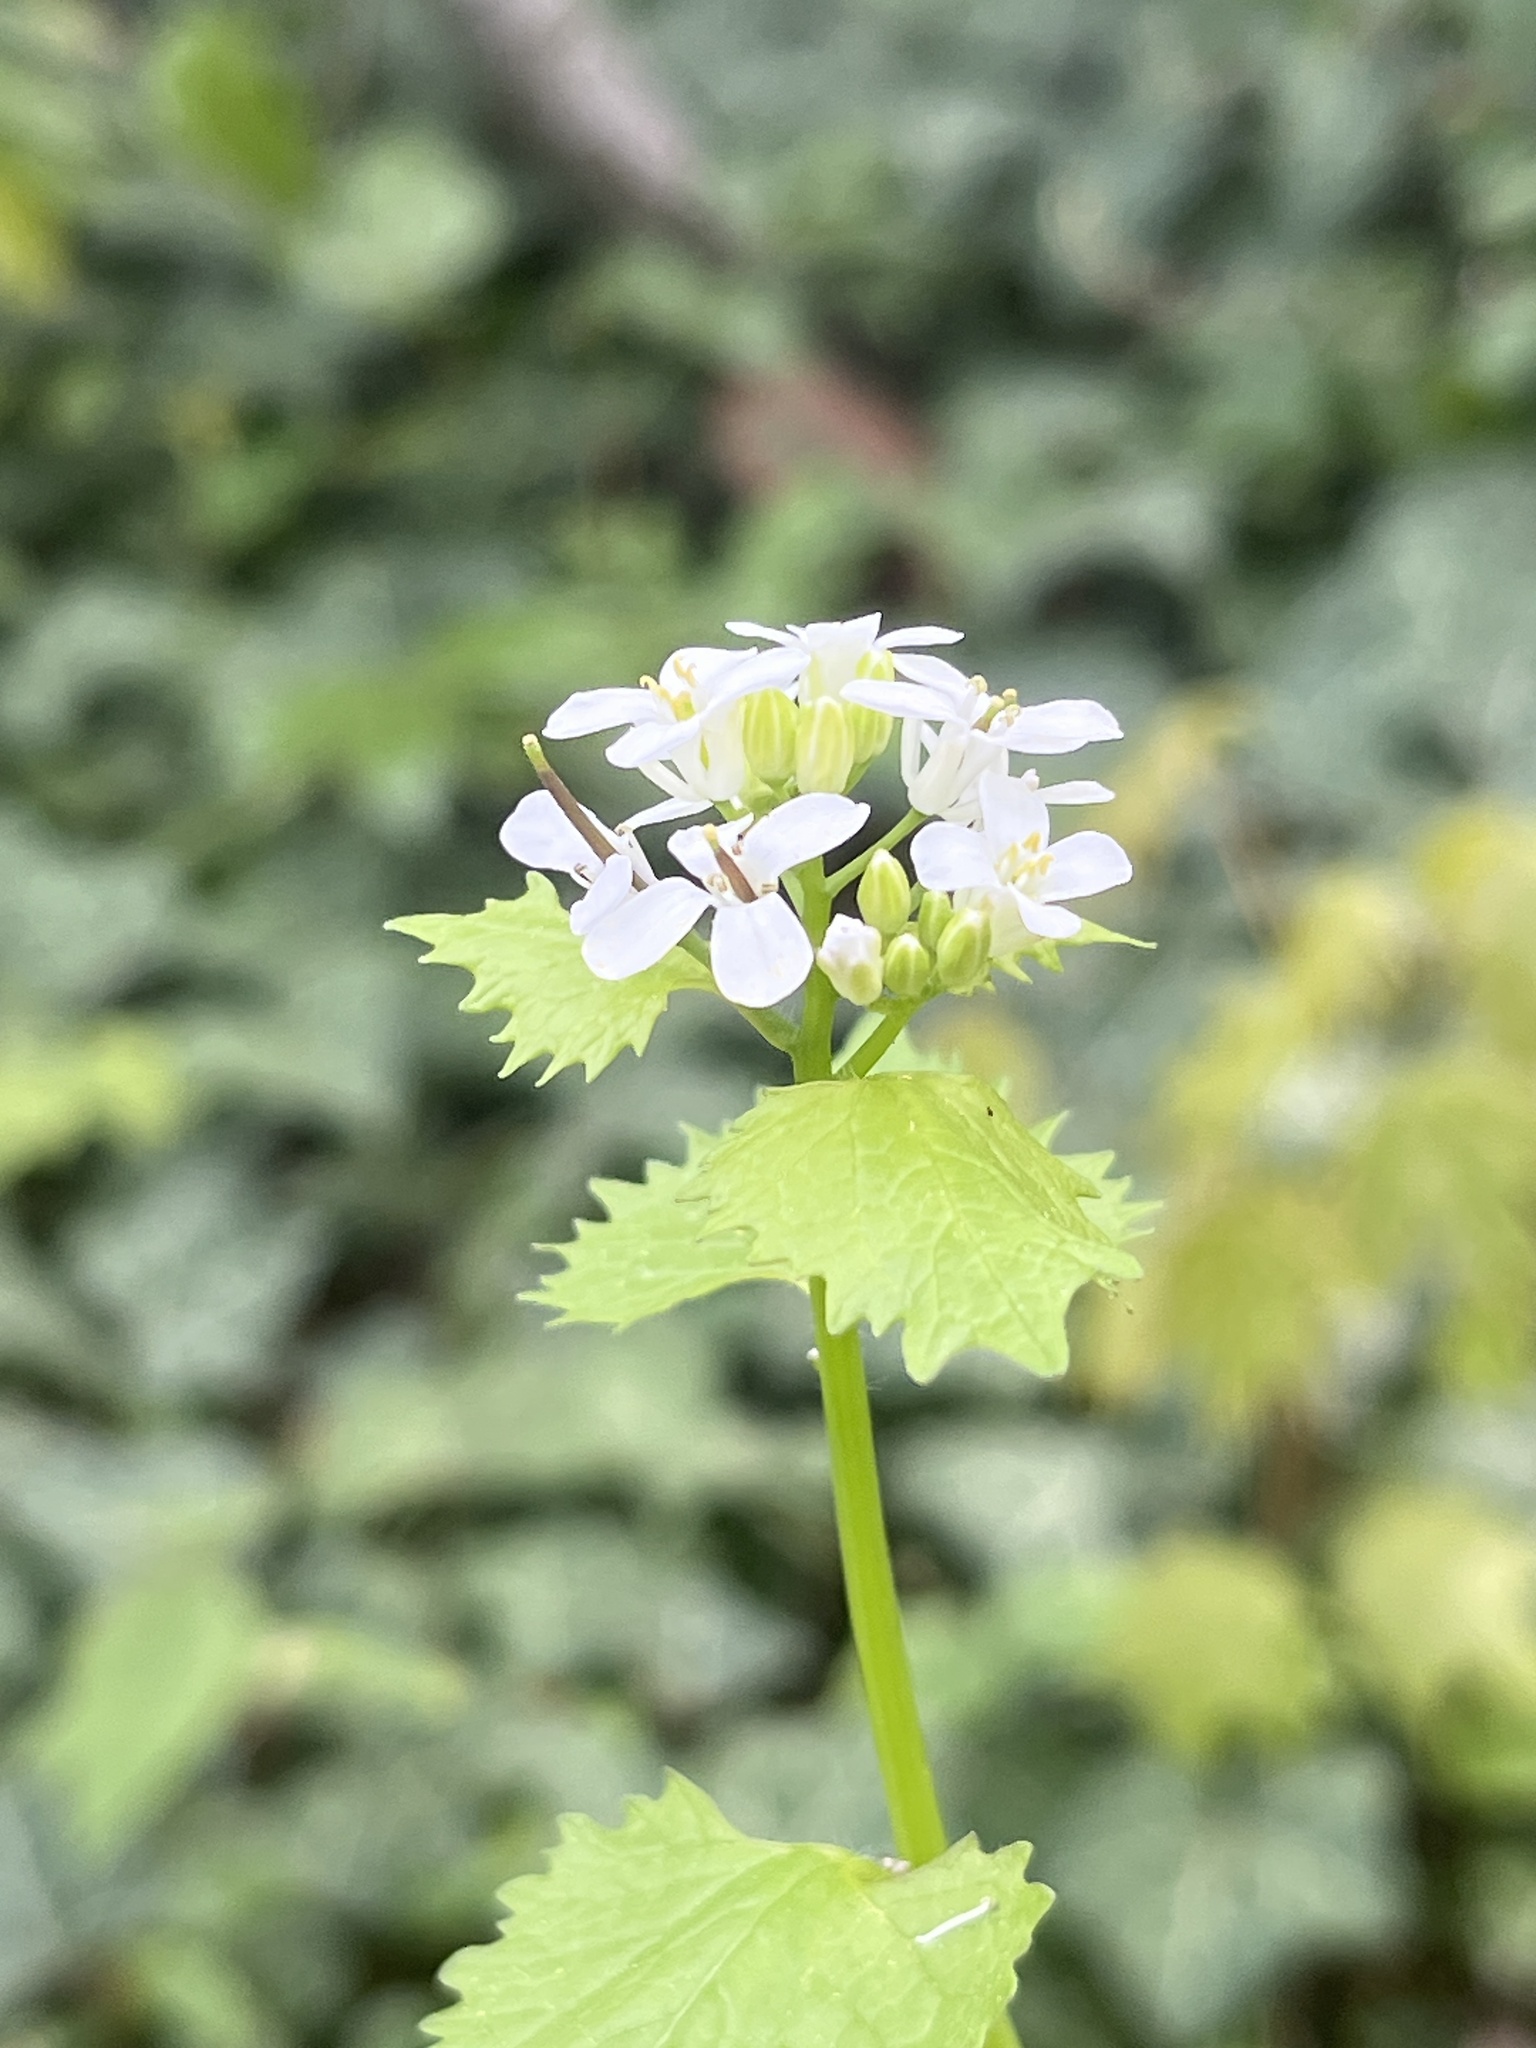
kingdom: Plantae
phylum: Tracheophyta
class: Magnoliopsida
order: Brassicales
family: Brassicaceae
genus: Alliaria
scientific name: Alliaria petiolata
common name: Garlic mustard
